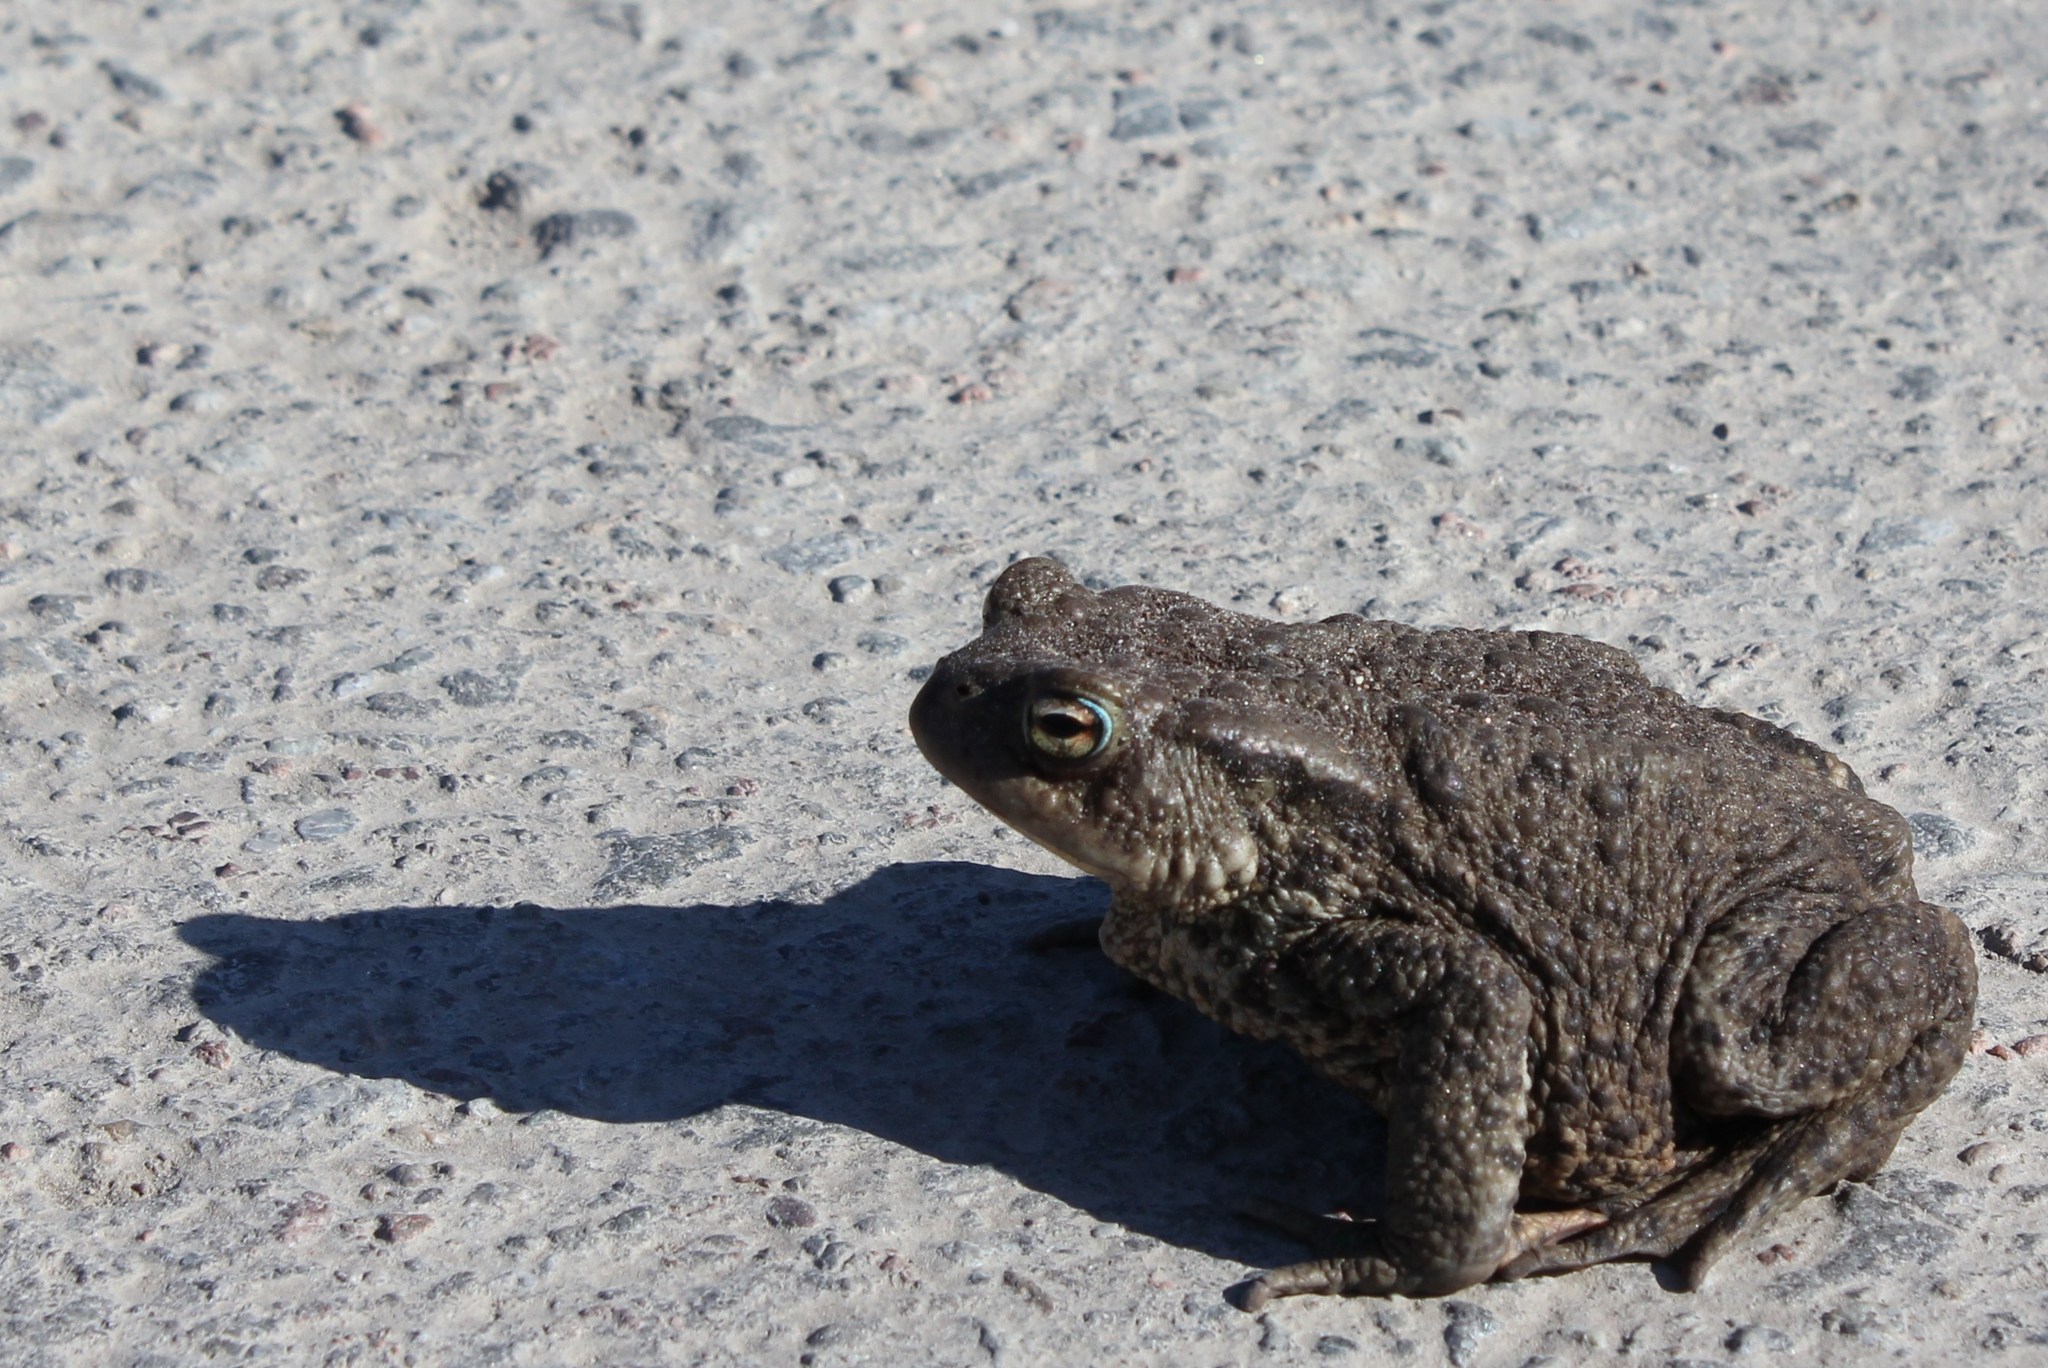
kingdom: Animalia
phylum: Chordata
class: Amphibia
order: Anura
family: Bufonidae
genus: Bufo
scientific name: Bufo bufo
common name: Common toad
